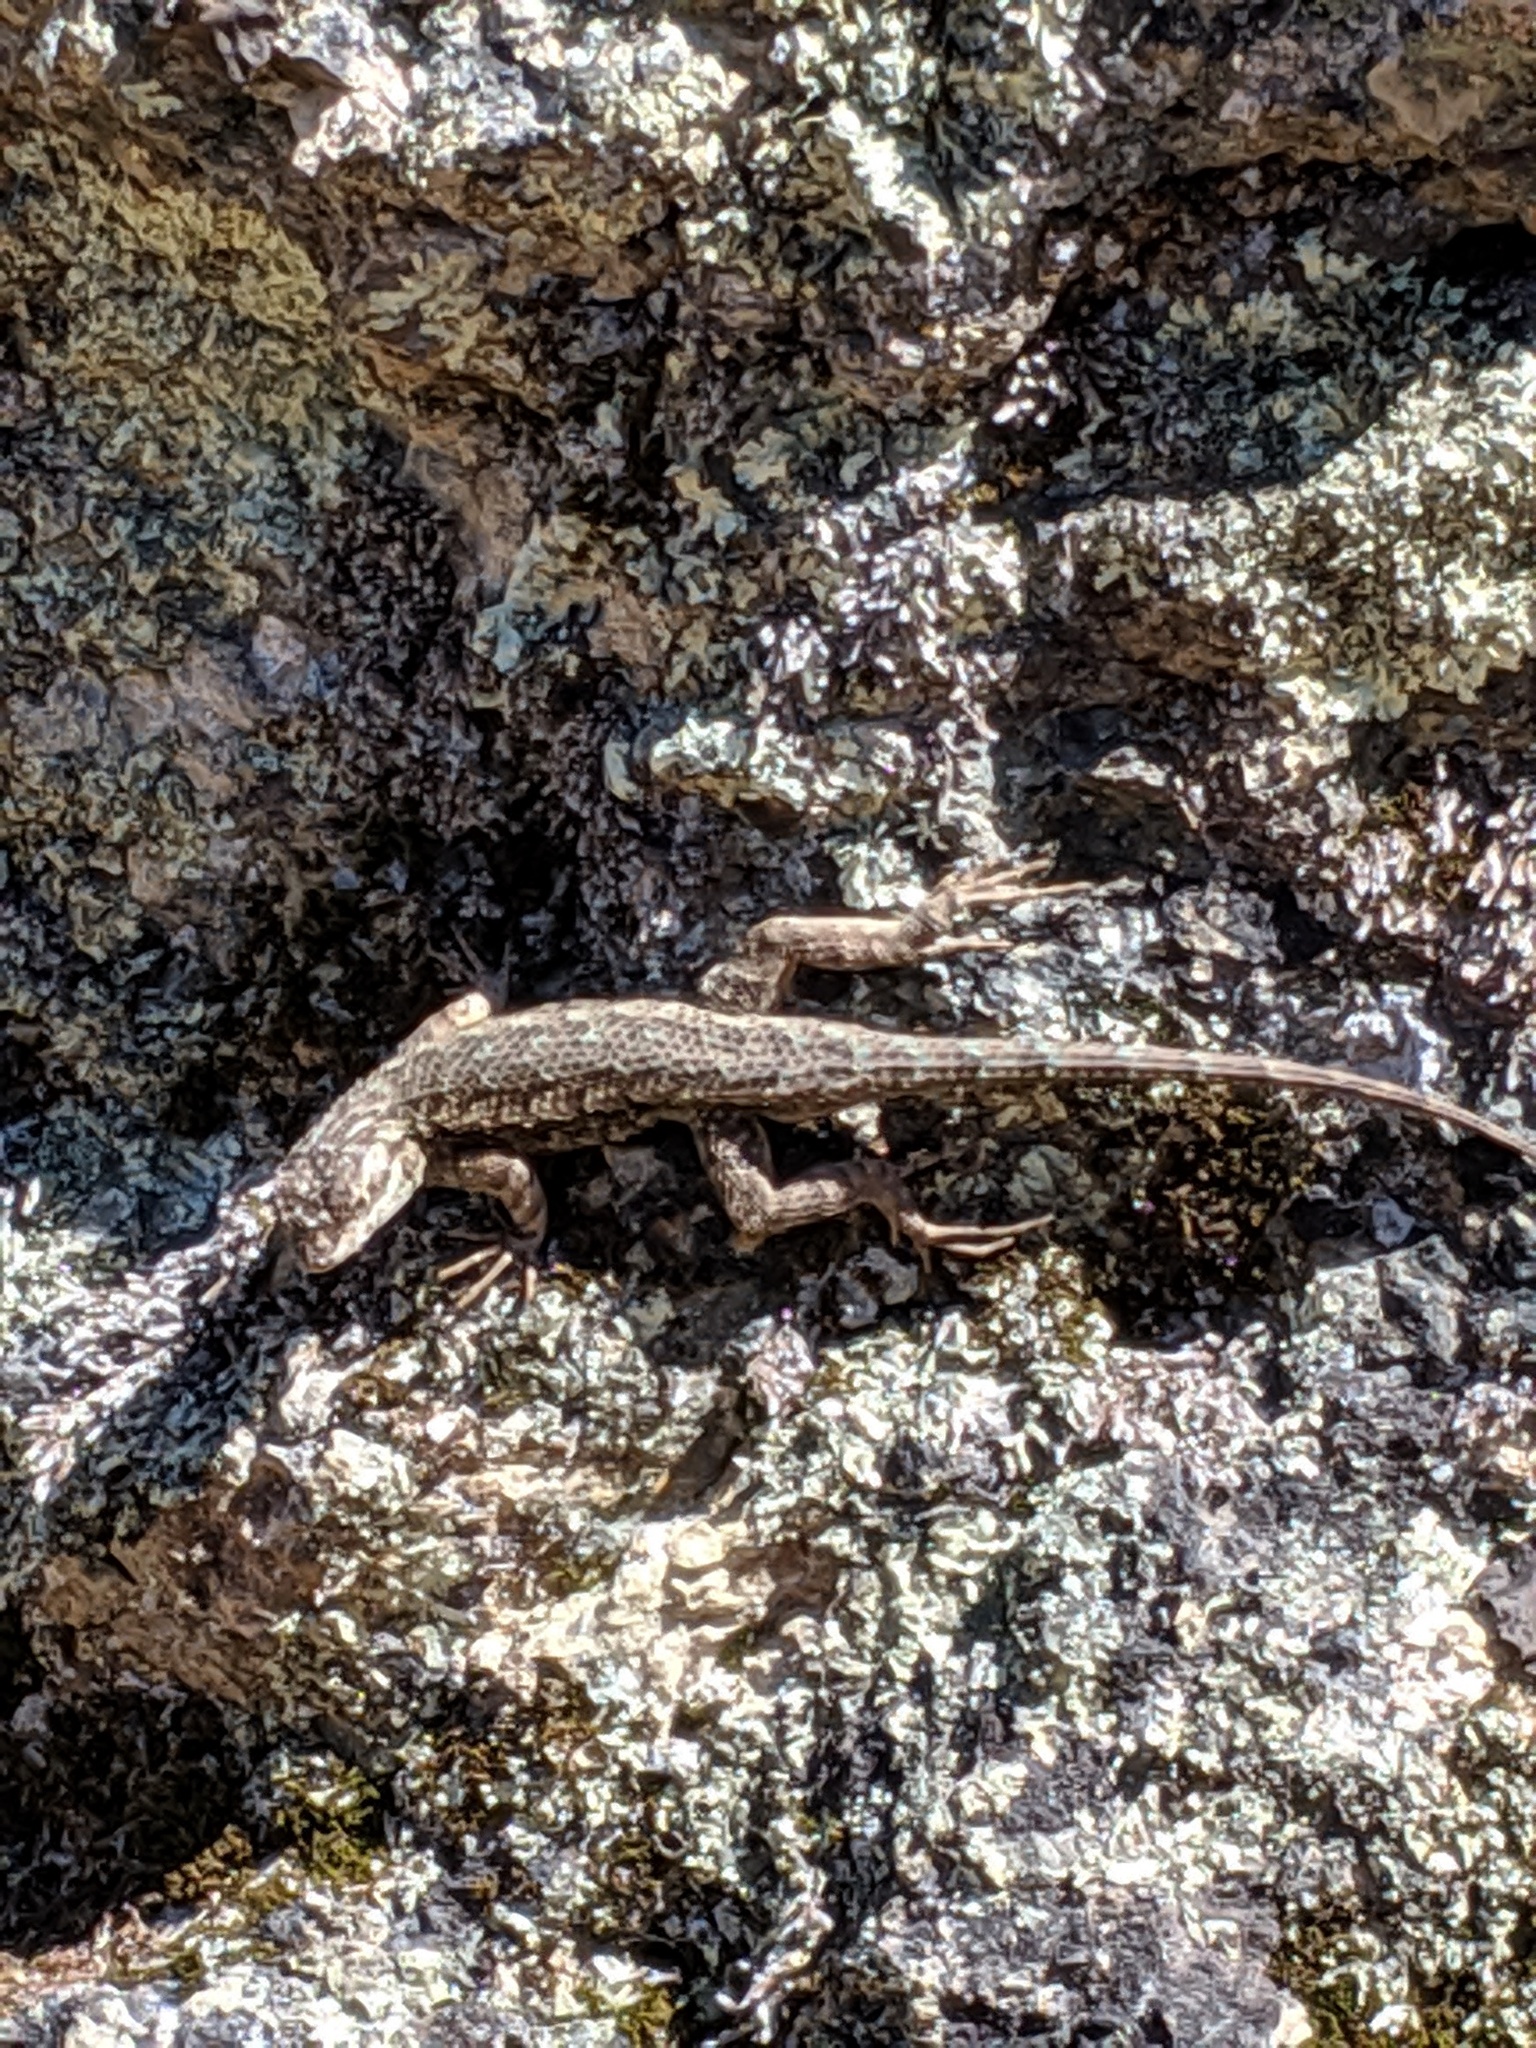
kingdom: Animalia
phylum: Chordata
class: Squamata
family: Phrynosomatidae
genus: Sceloporus
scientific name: Sceloporus occidentalis
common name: Western fence lizard
